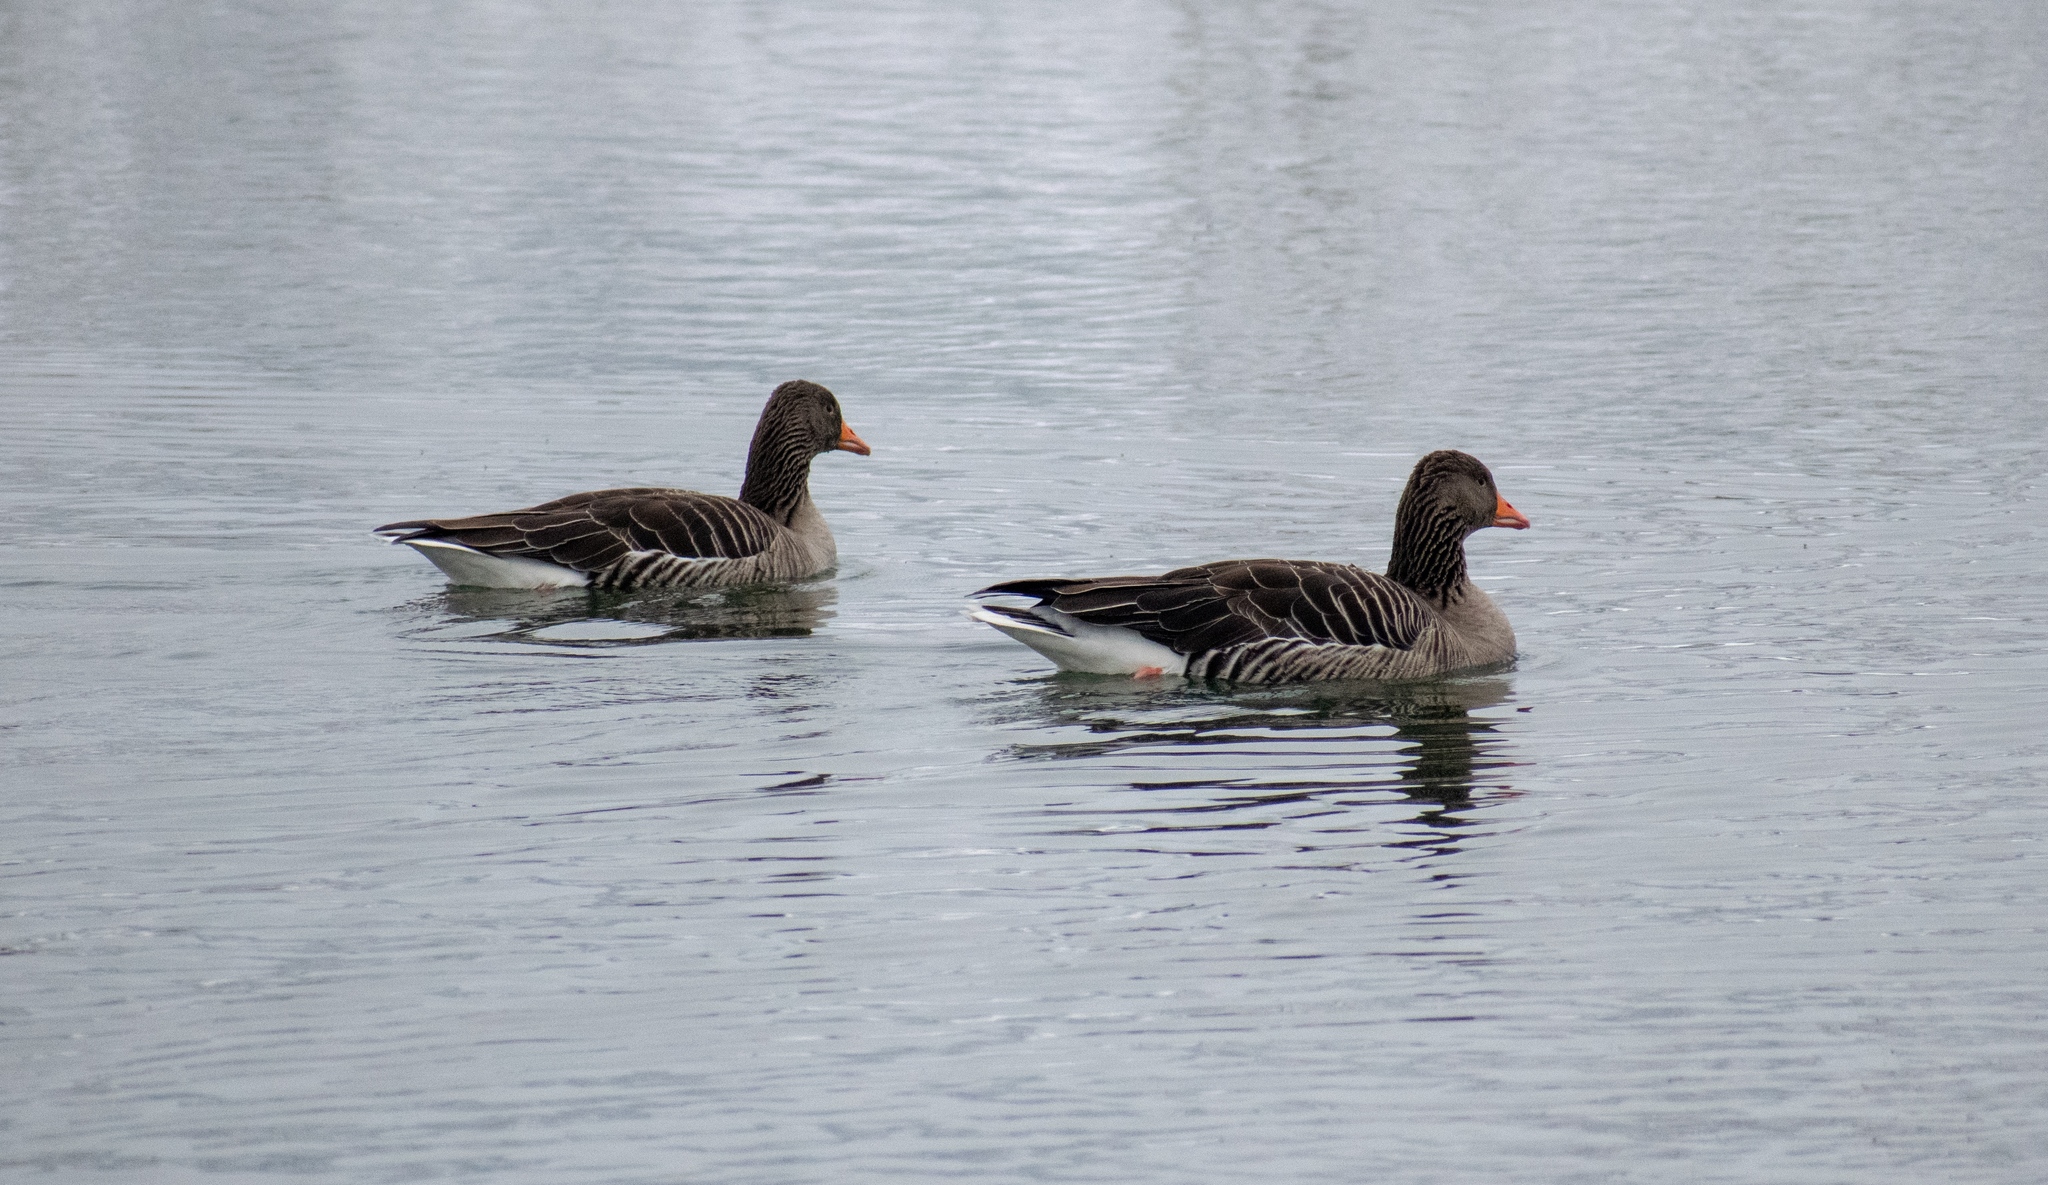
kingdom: Animalia
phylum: Chordata
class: Aves
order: Anseriformes
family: Anatidae
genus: Anser
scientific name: Anser anser
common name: Greylag goose
